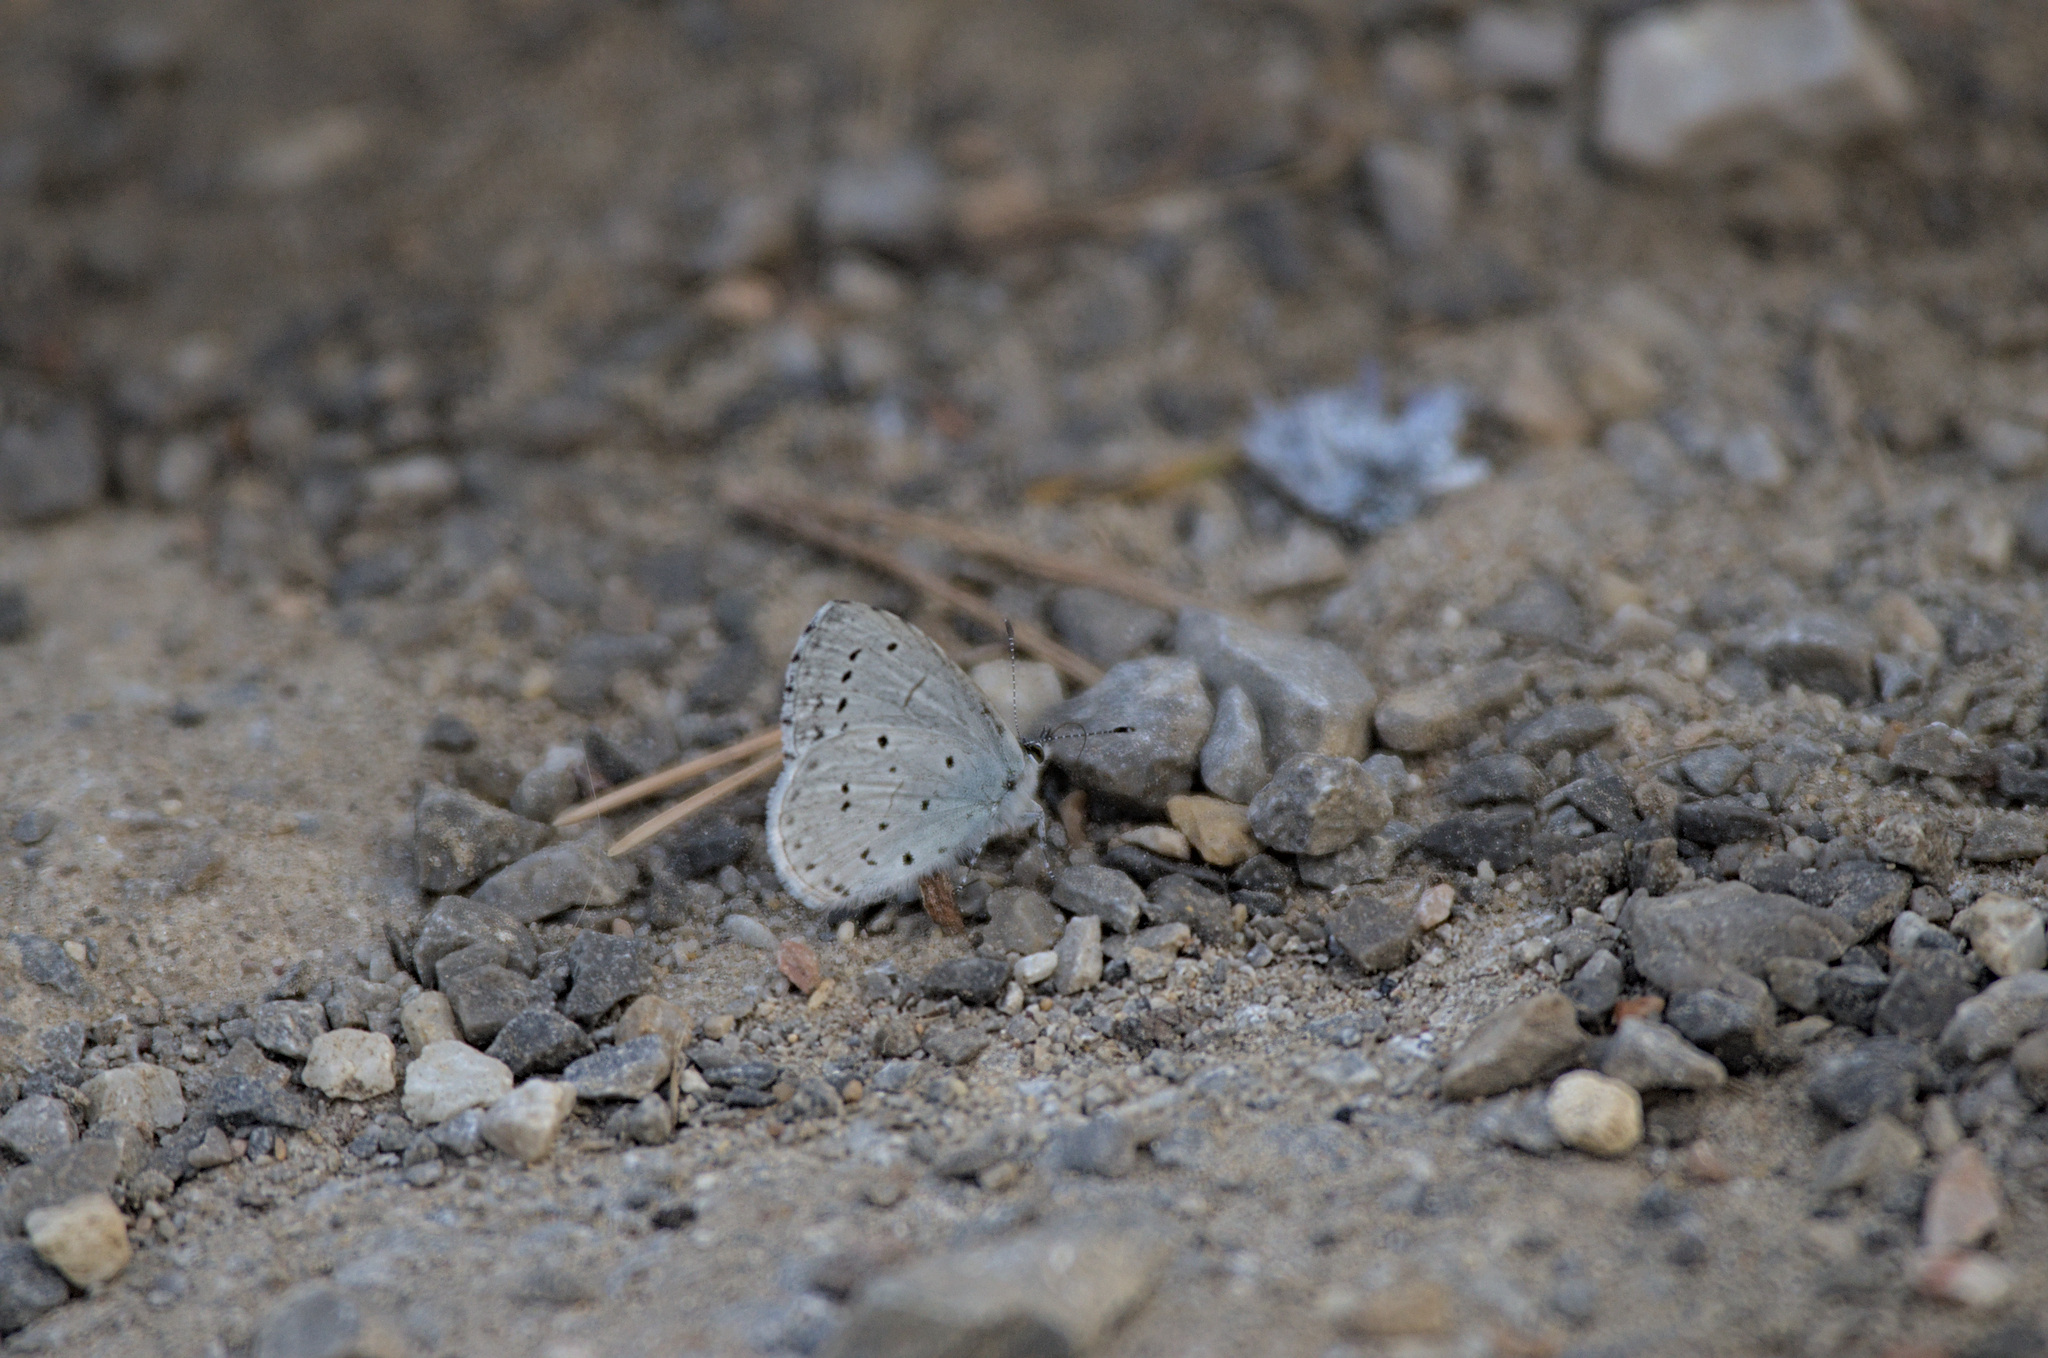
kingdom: Animalia
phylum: Arthropoda
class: Insecta
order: Lepidoptera
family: Lycaenidae
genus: Celastrina
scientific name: Celastrina argiolus
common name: Holly blue
